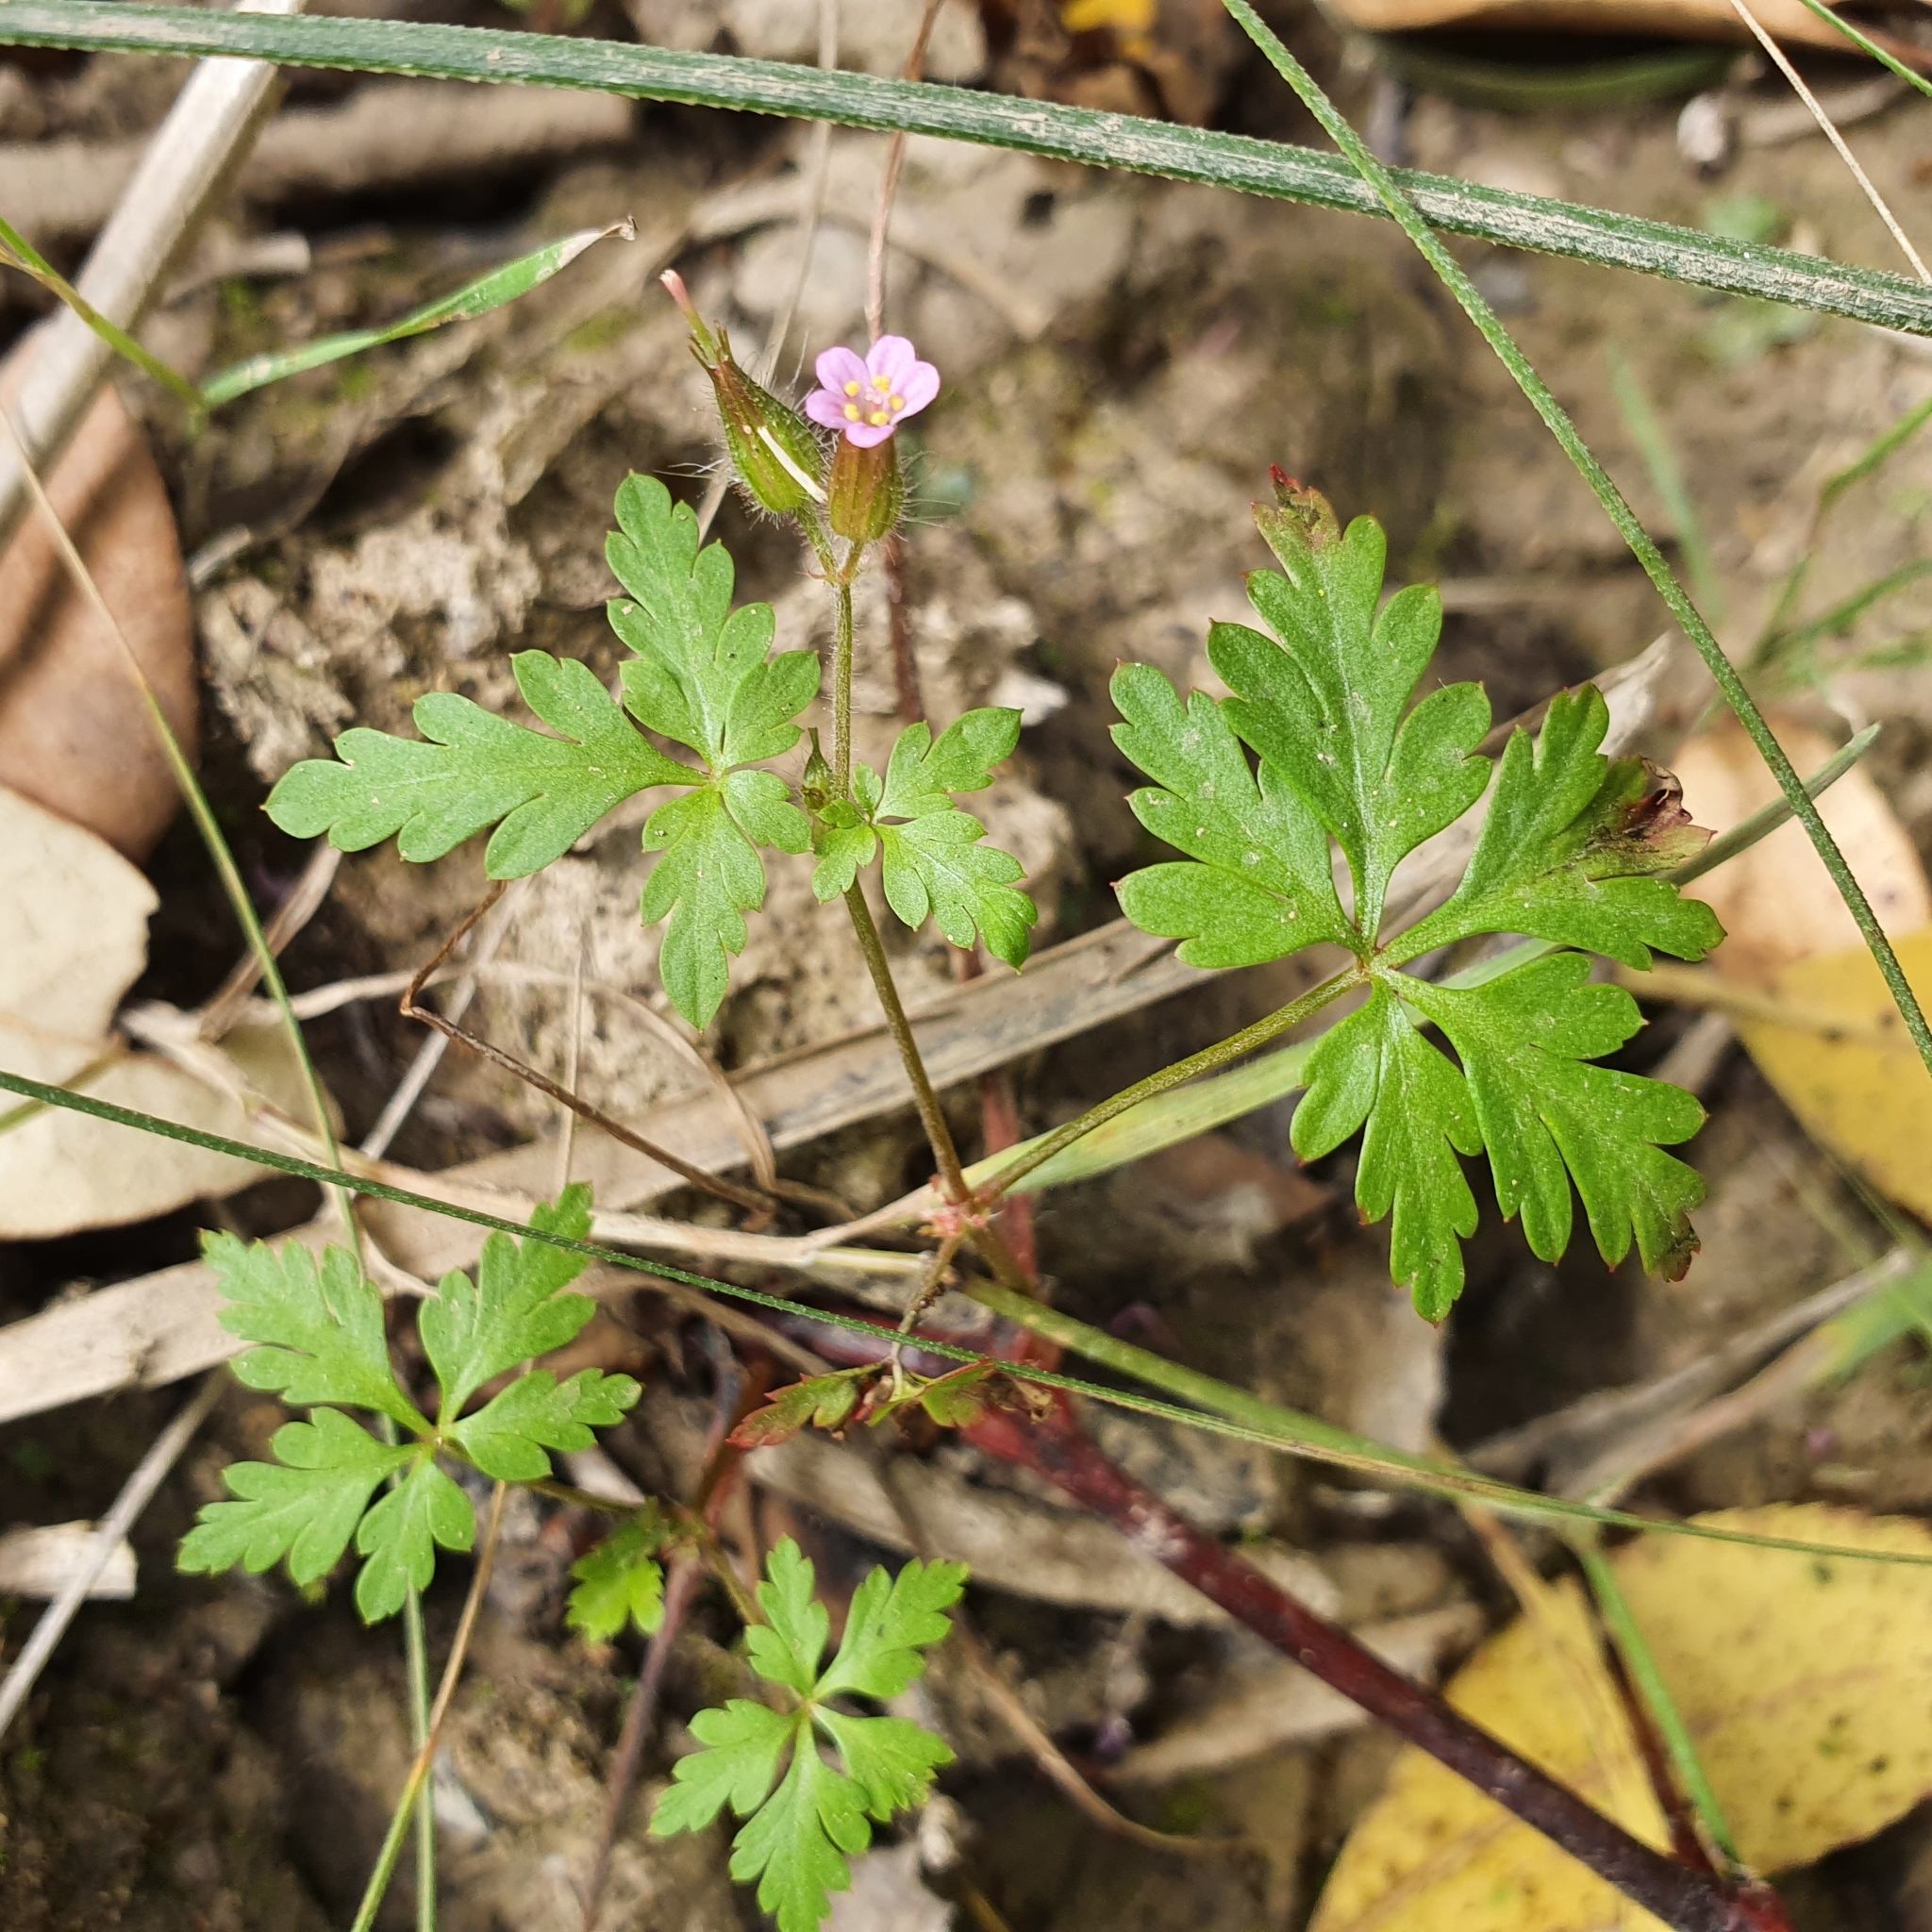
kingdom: Plantae
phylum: Tracheophyta
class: Magnoliopsida
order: Geraniales
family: Geraniaceae
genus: Geranium
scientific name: Geranium purpureum
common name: Little-robin
